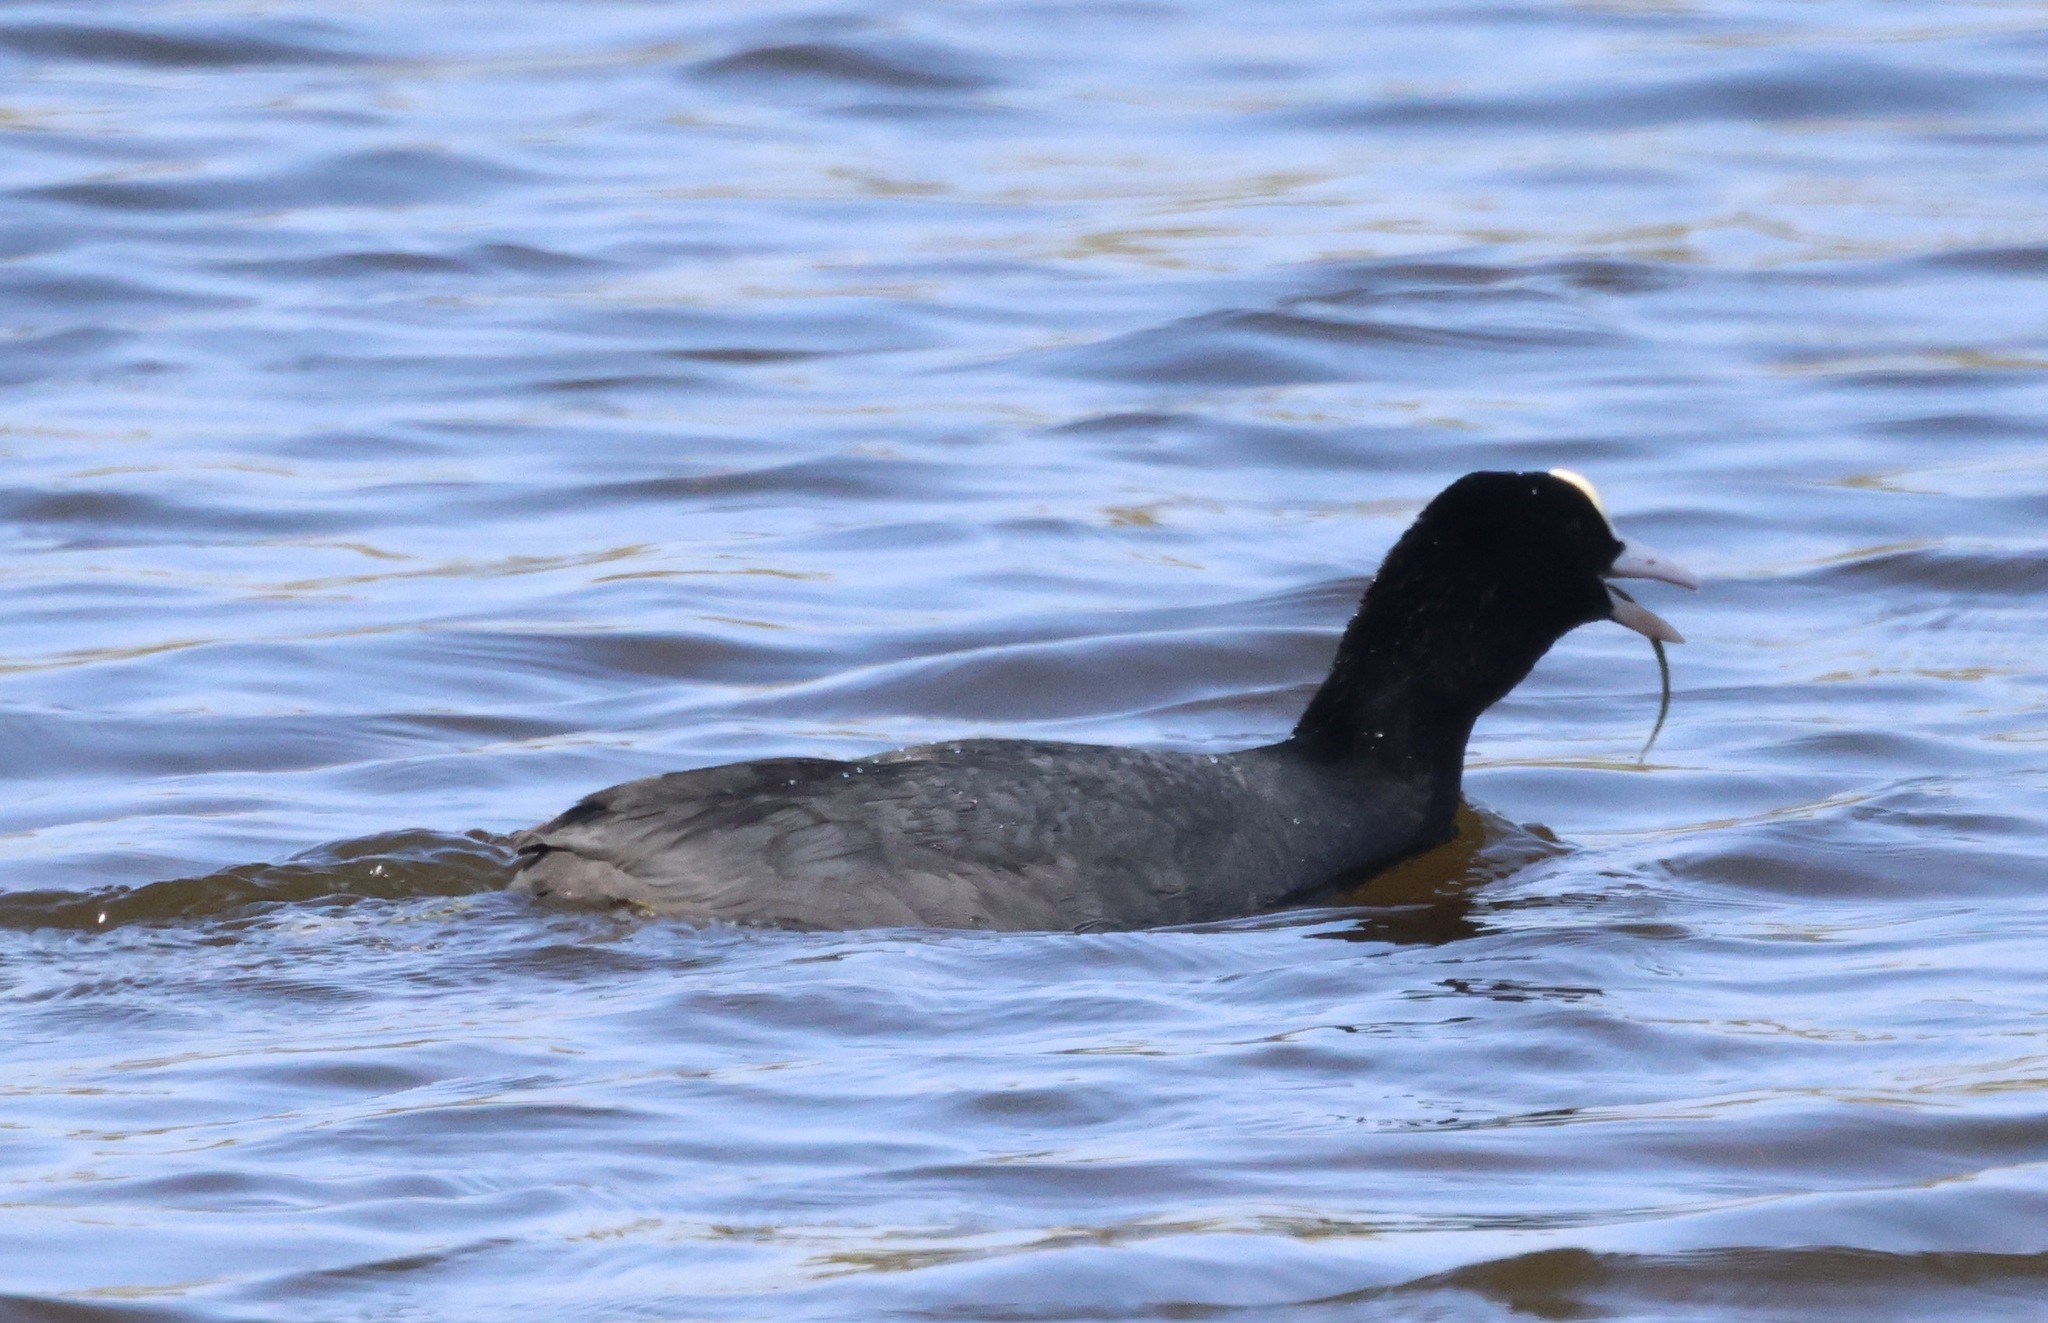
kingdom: Animalia
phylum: Chordata
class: Aves
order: Gruiformes
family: Rallidae
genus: Fulica
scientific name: Fulica atra
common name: Eurasian coot
